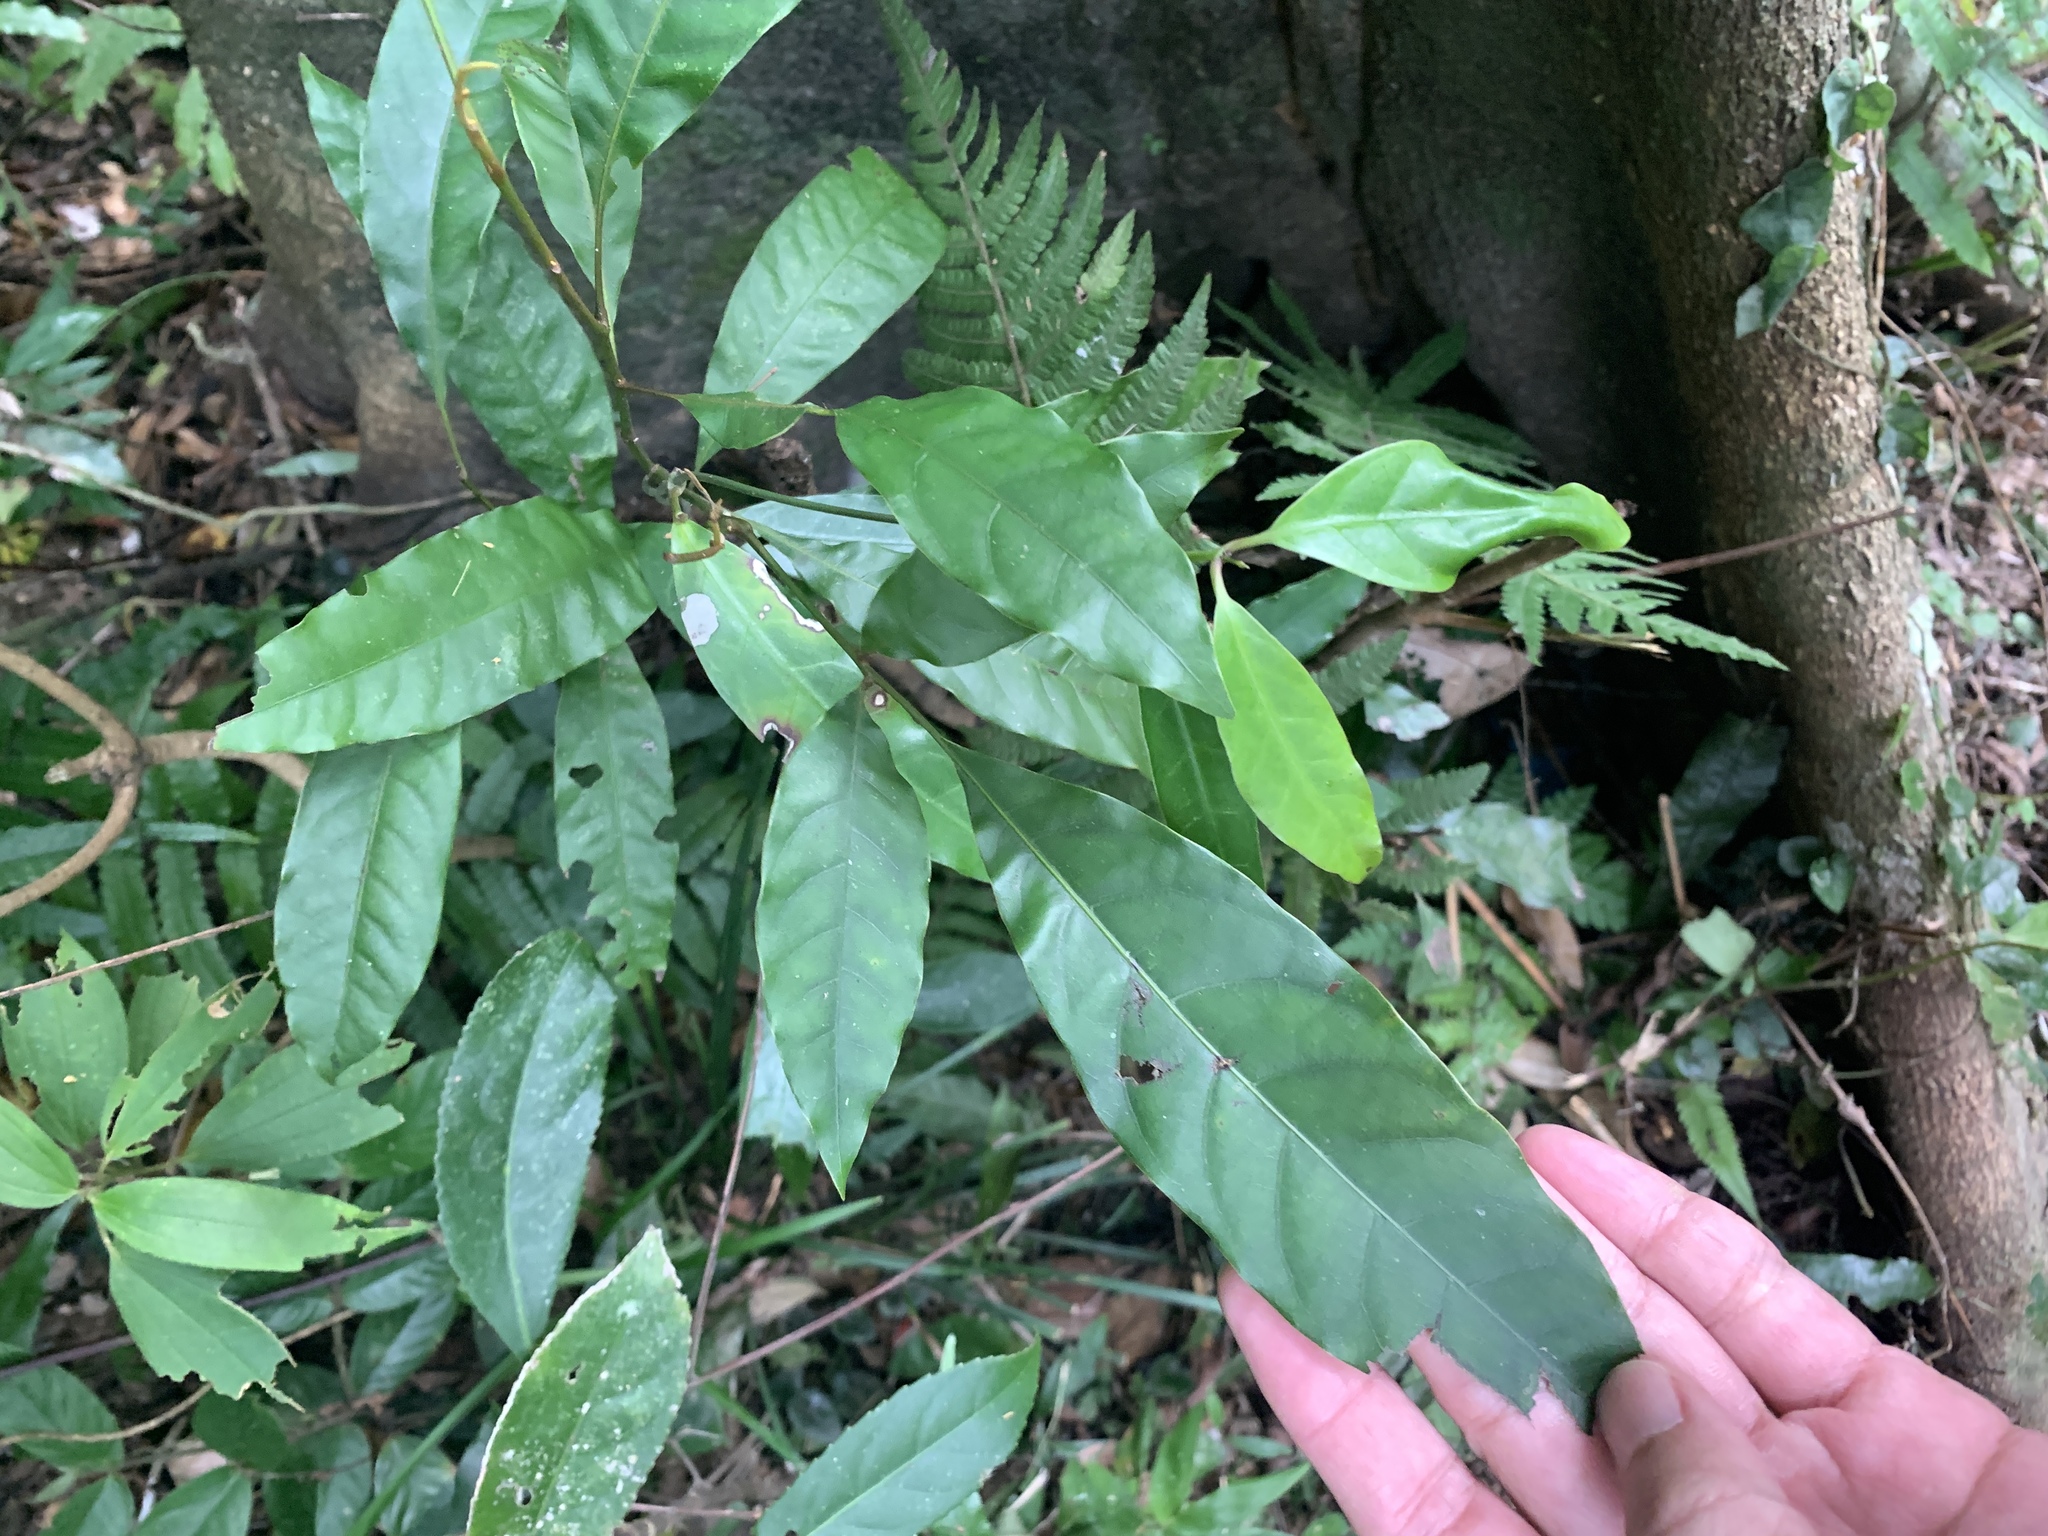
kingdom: Plantae
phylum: Tracheophyta
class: Magnoliopsida
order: Fagales
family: Juglandaceae
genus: Engelhardia
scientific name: Engelhardia roxburghiana
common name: Golden malay beam
